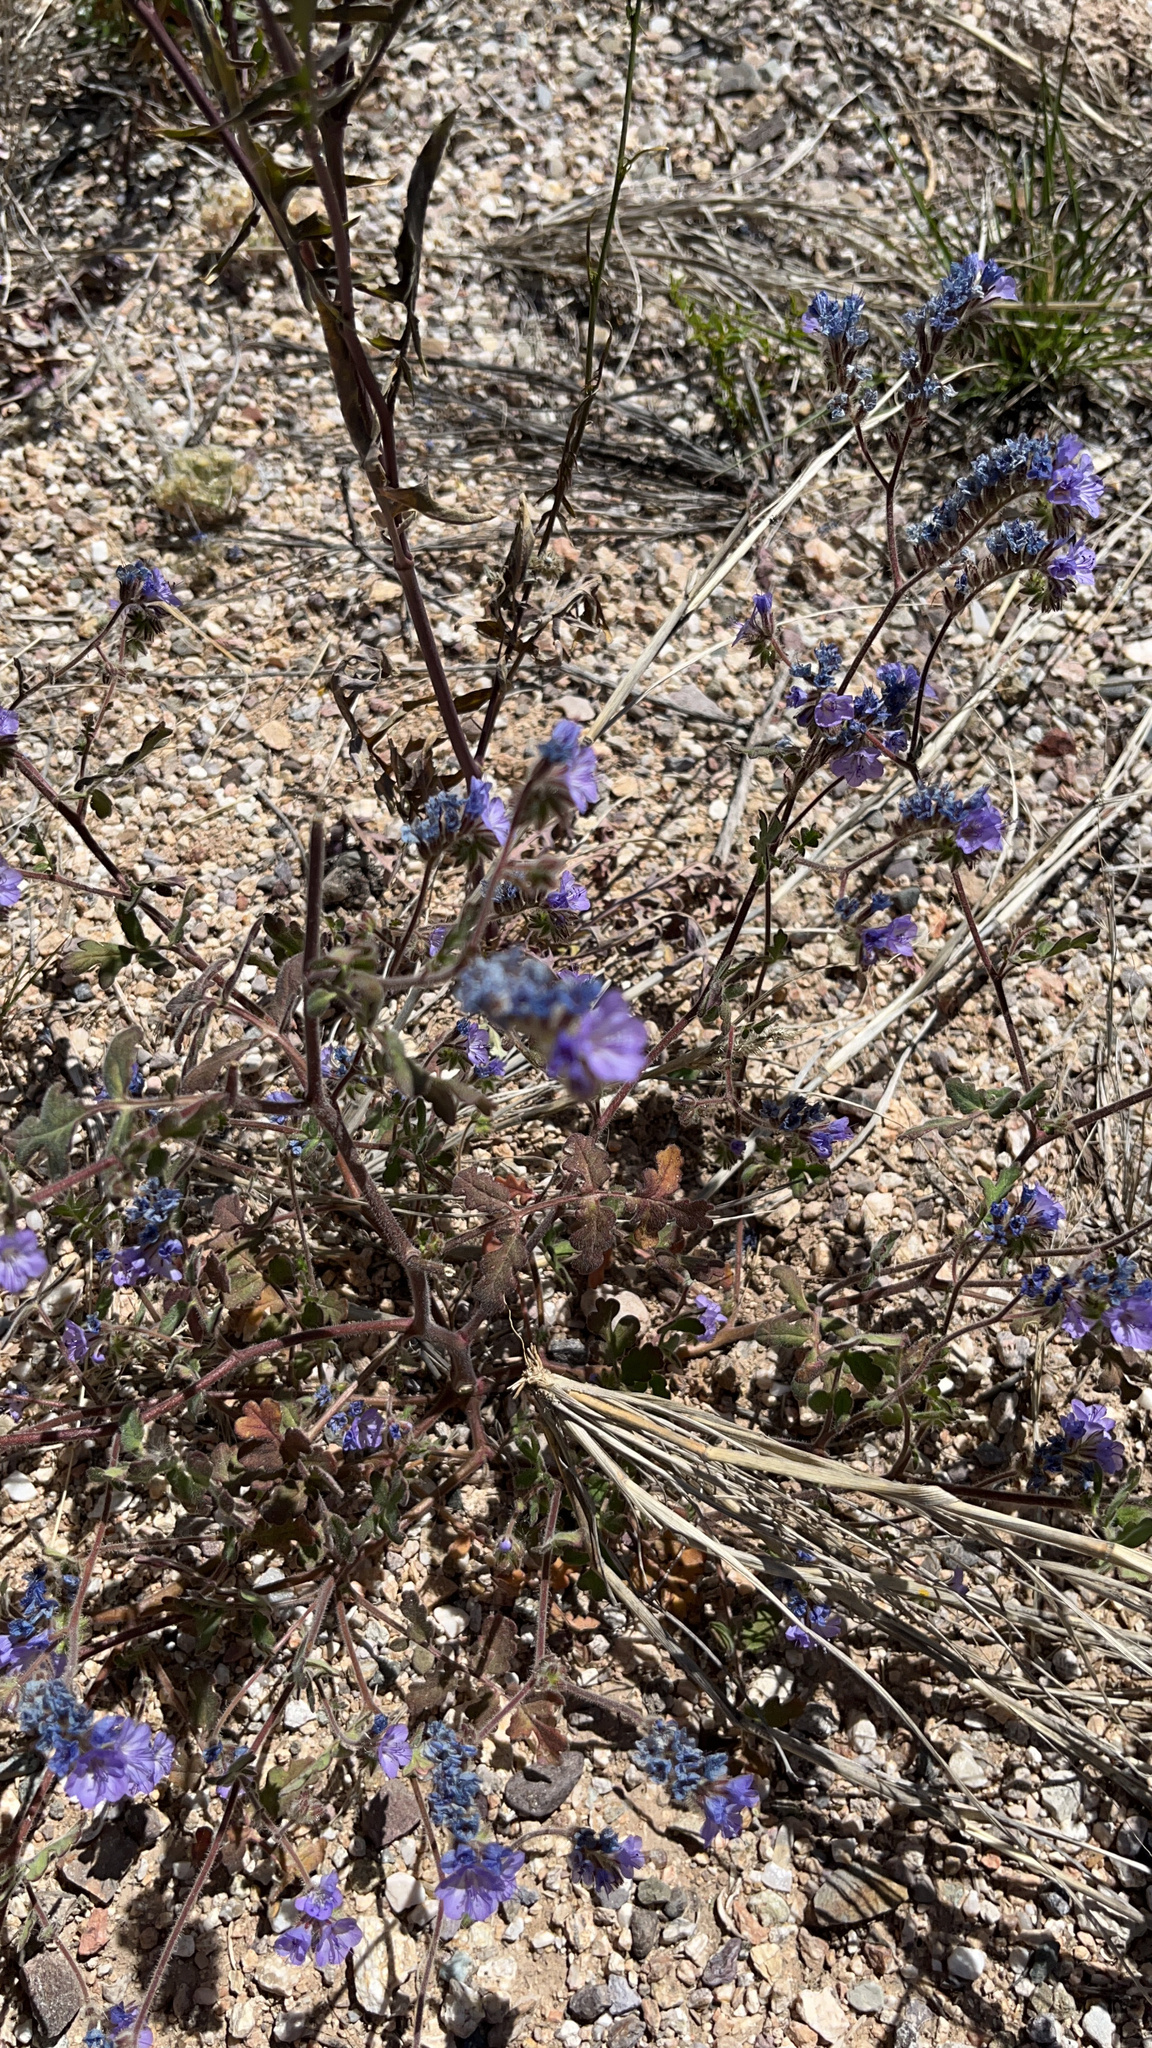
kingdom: Plantae
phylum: Tracheophyta
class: Magnoliopsida
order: Boraginales
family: Hydrophyllaceae
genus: Phacelia
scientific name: Phacelia distans
